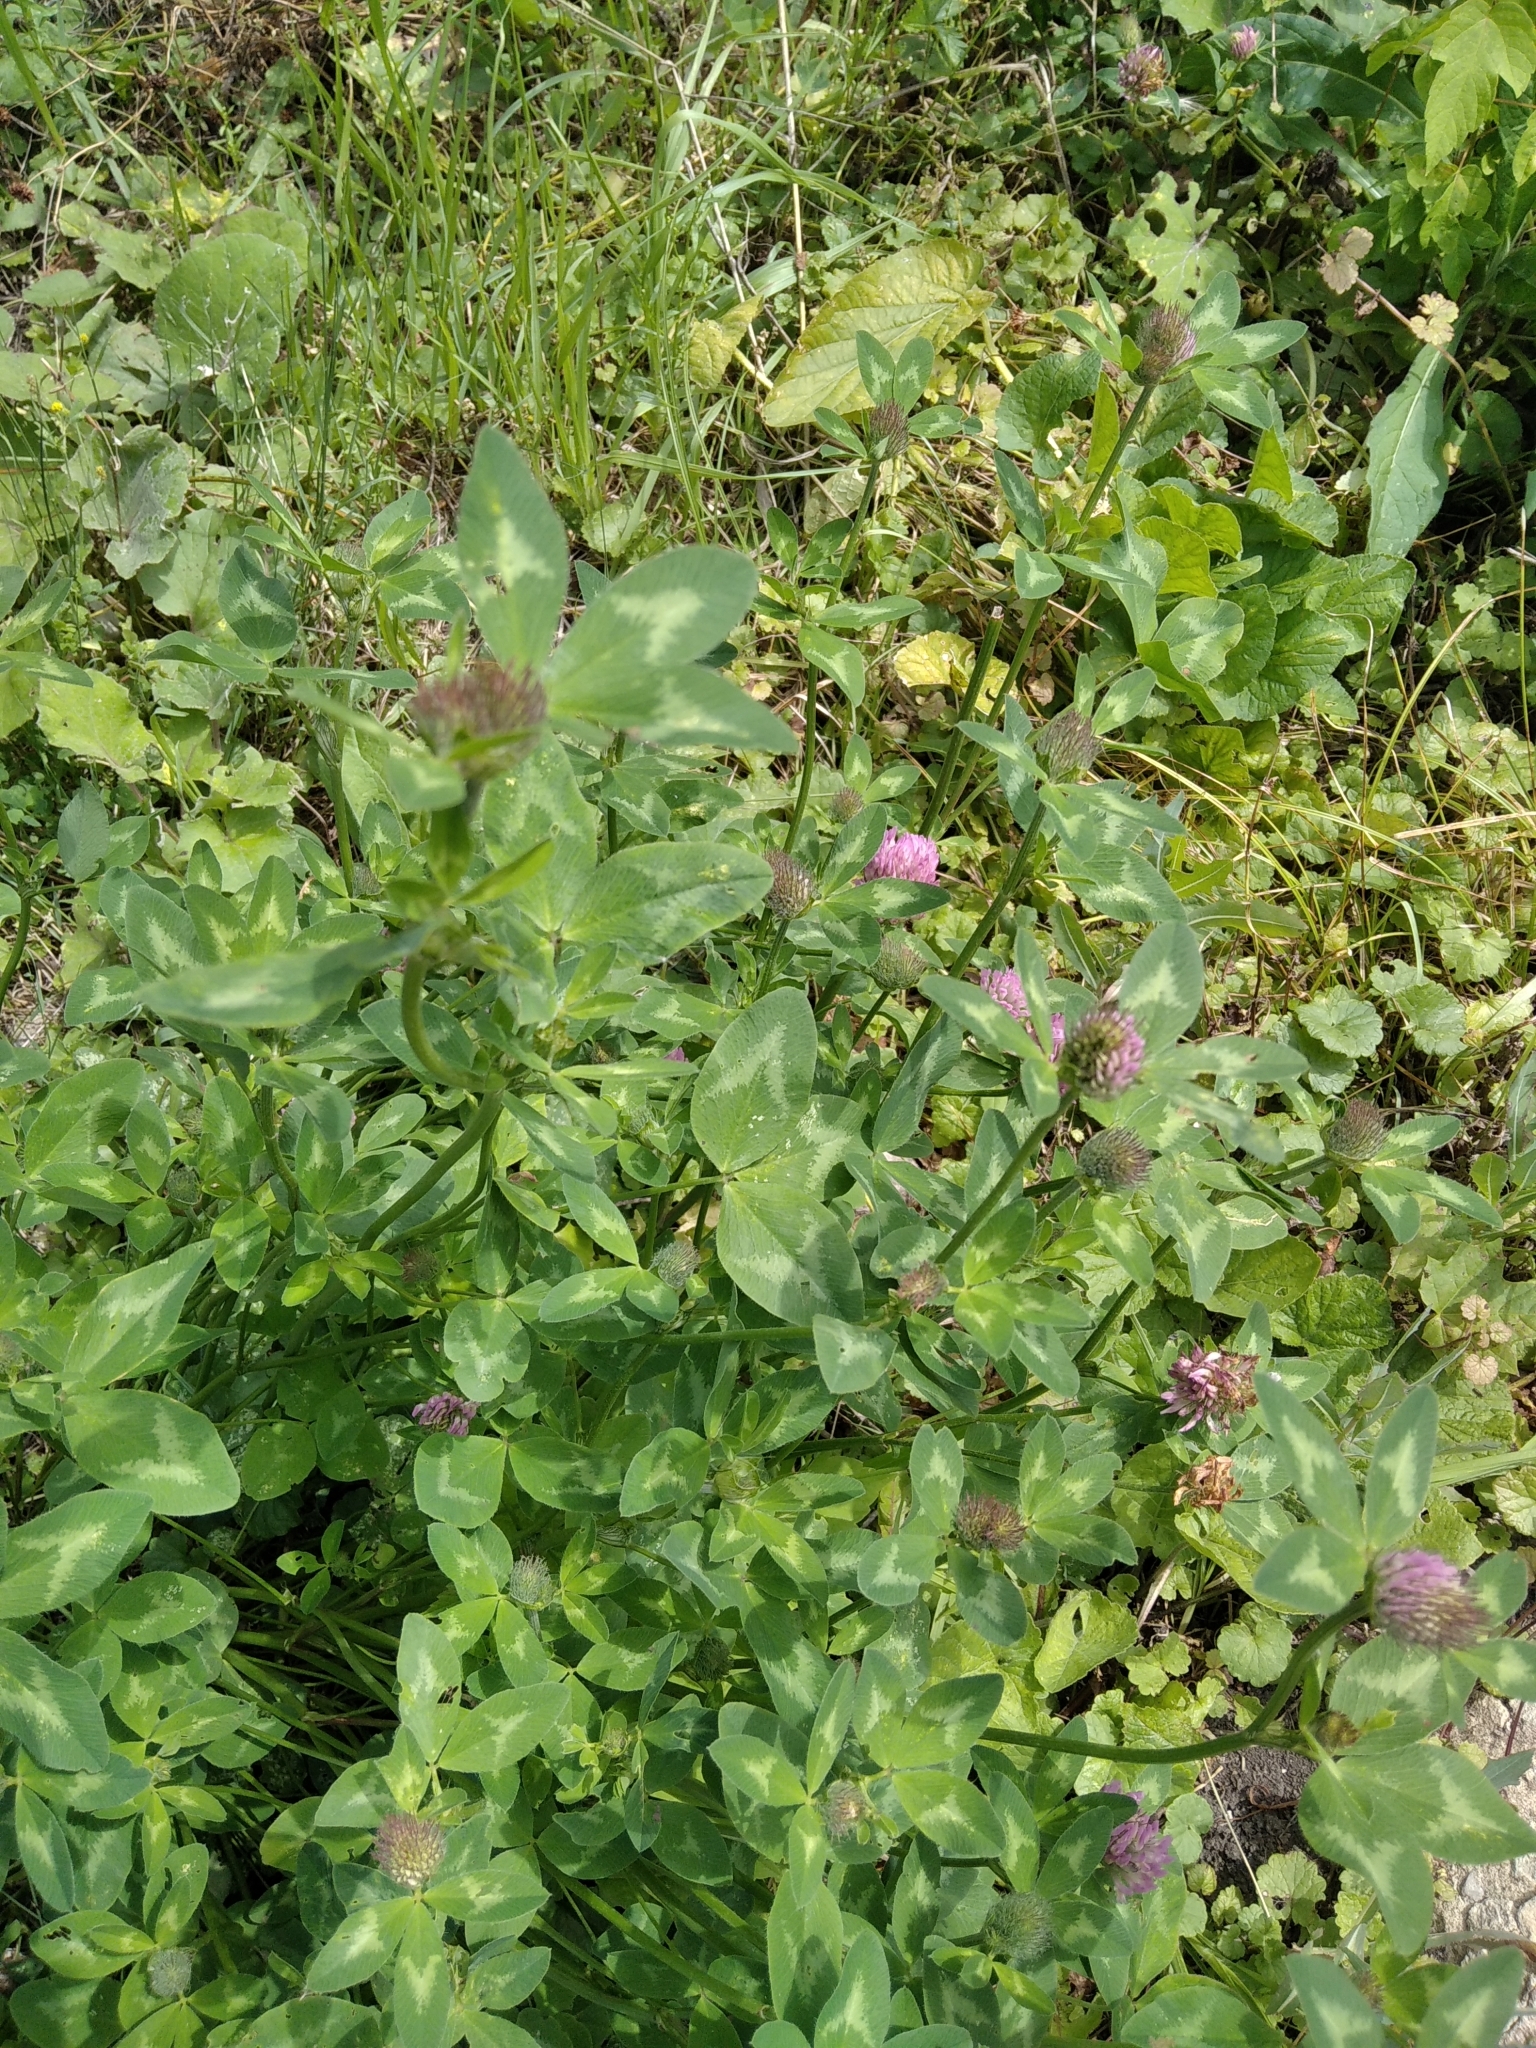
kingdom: Plantae
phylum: Tracheophyta
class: Magnoliopsida
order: Fabales
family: Fabaceae
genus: Trifolium
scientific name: Trifolium pratense
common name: Red clover
